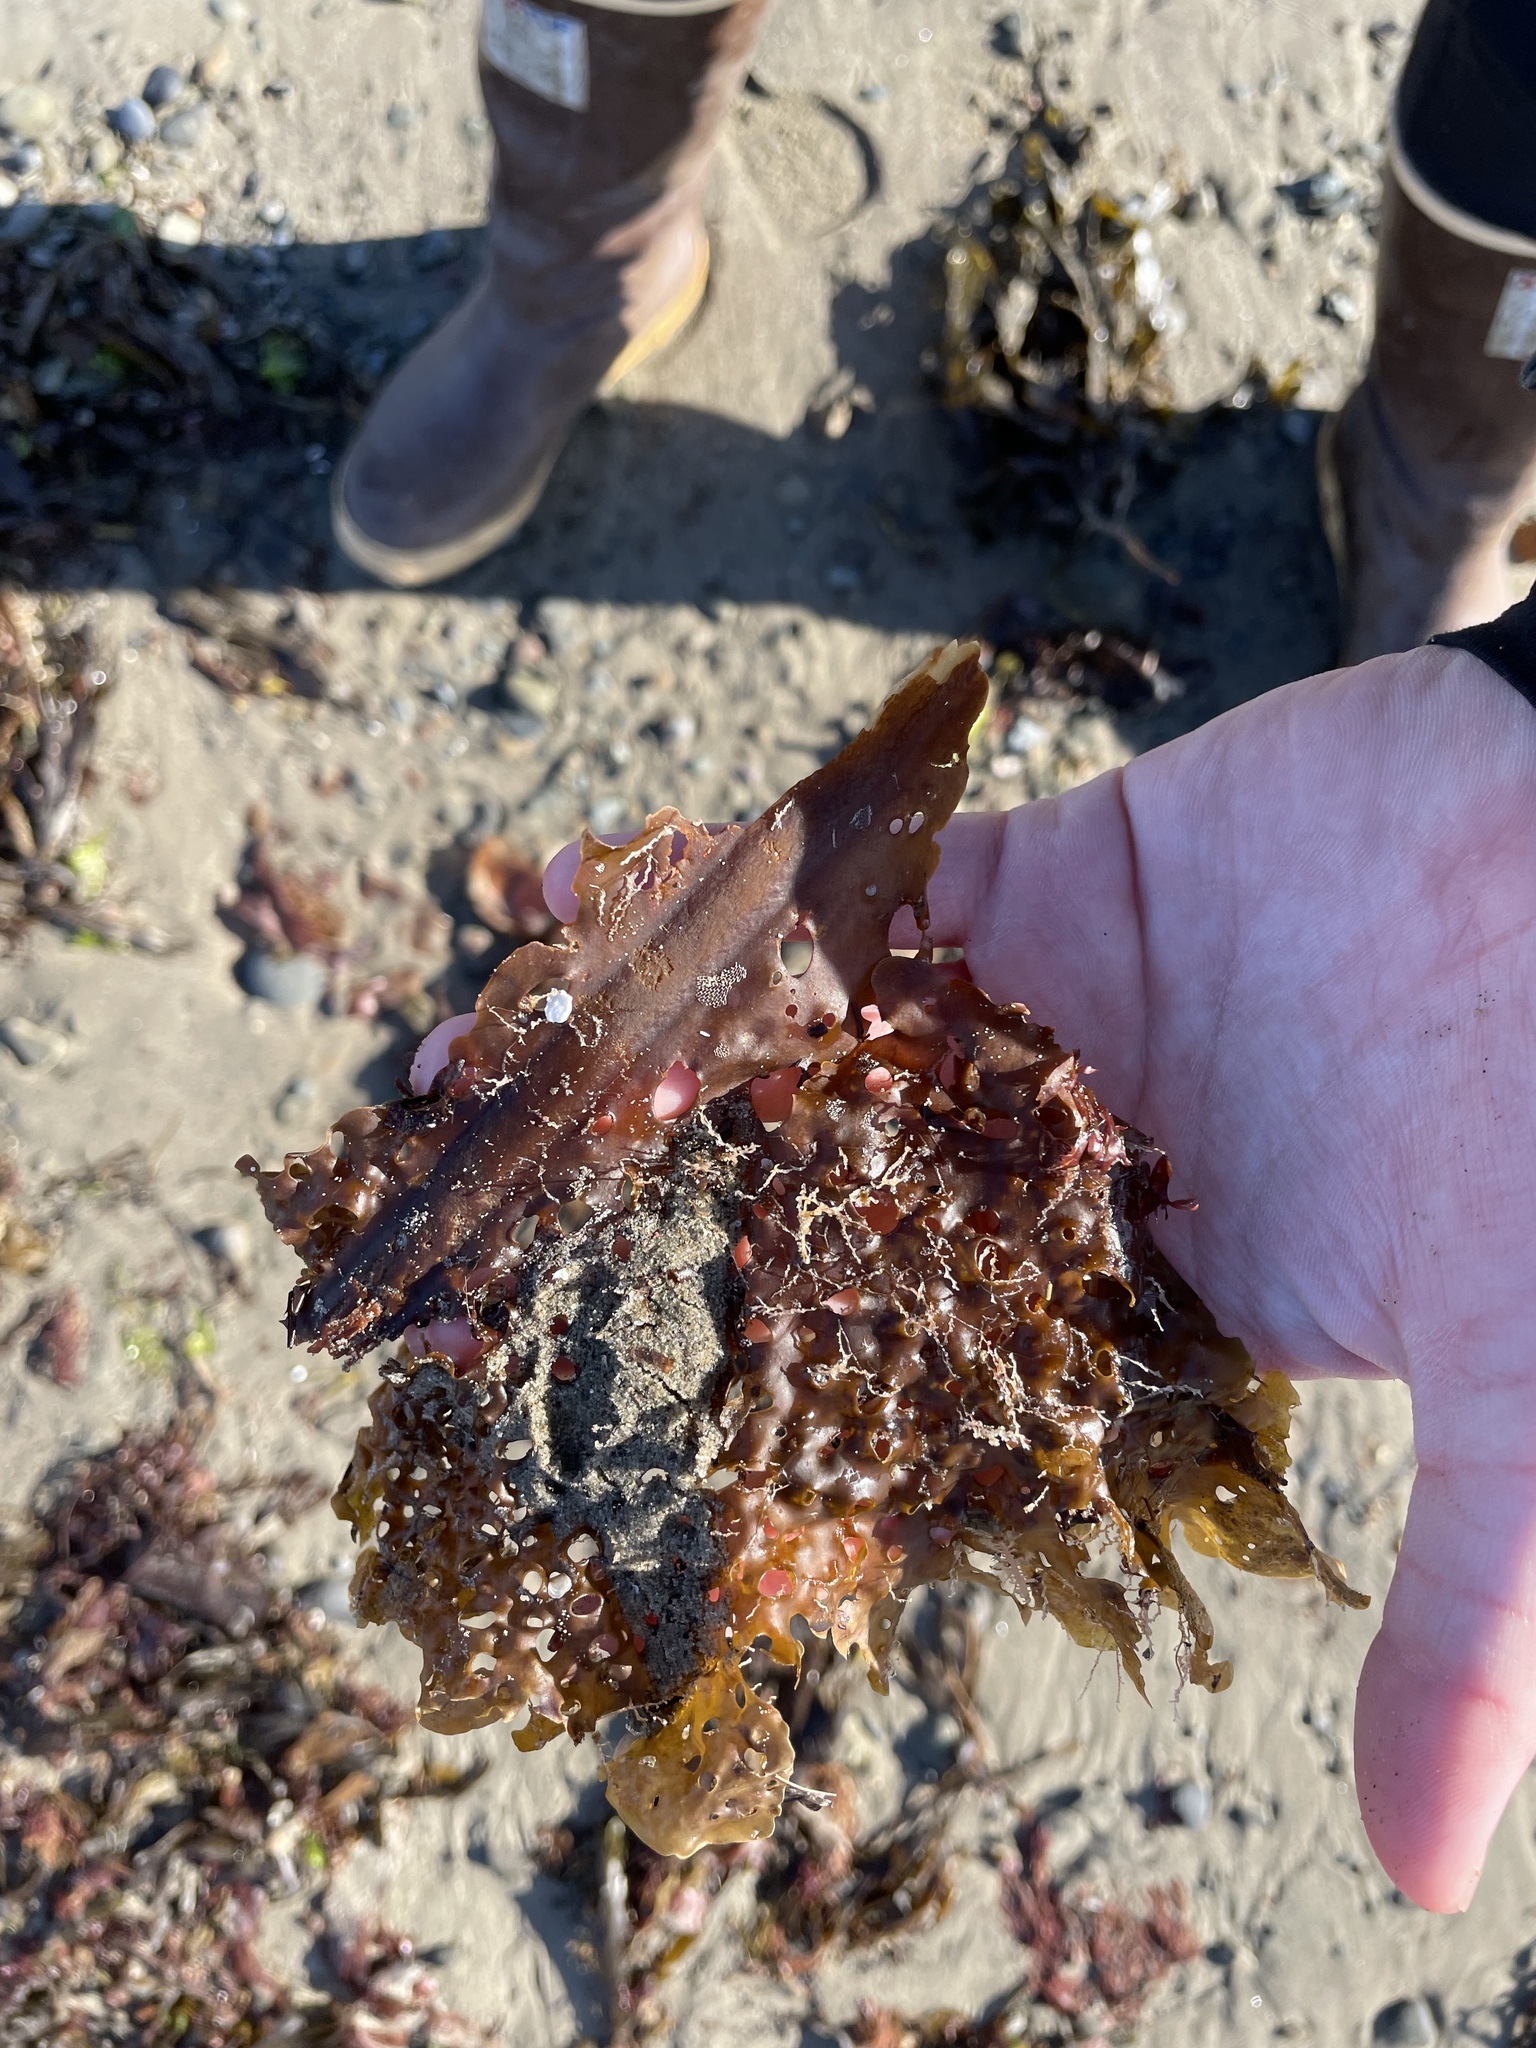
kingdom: Chromista
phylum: Ochrophyta
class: Phaeophyceae
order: Laminariales
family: Costariaceae
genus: Agarum
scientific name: Agarum clathratum
